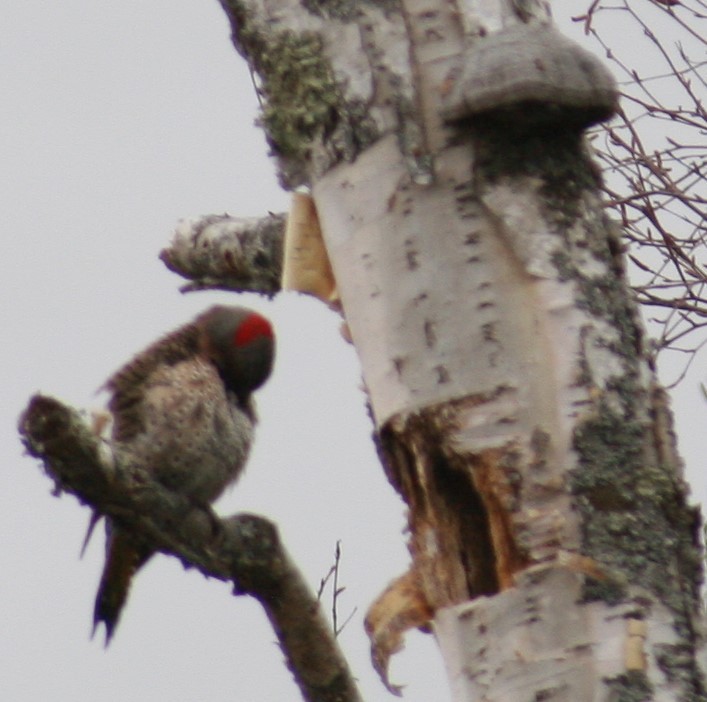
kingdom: Animalia
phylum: Chordata
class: Aves
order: Piciformes
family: Picidae
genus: Colaptes
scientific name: Colaptes auratus
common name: Northern flicker
